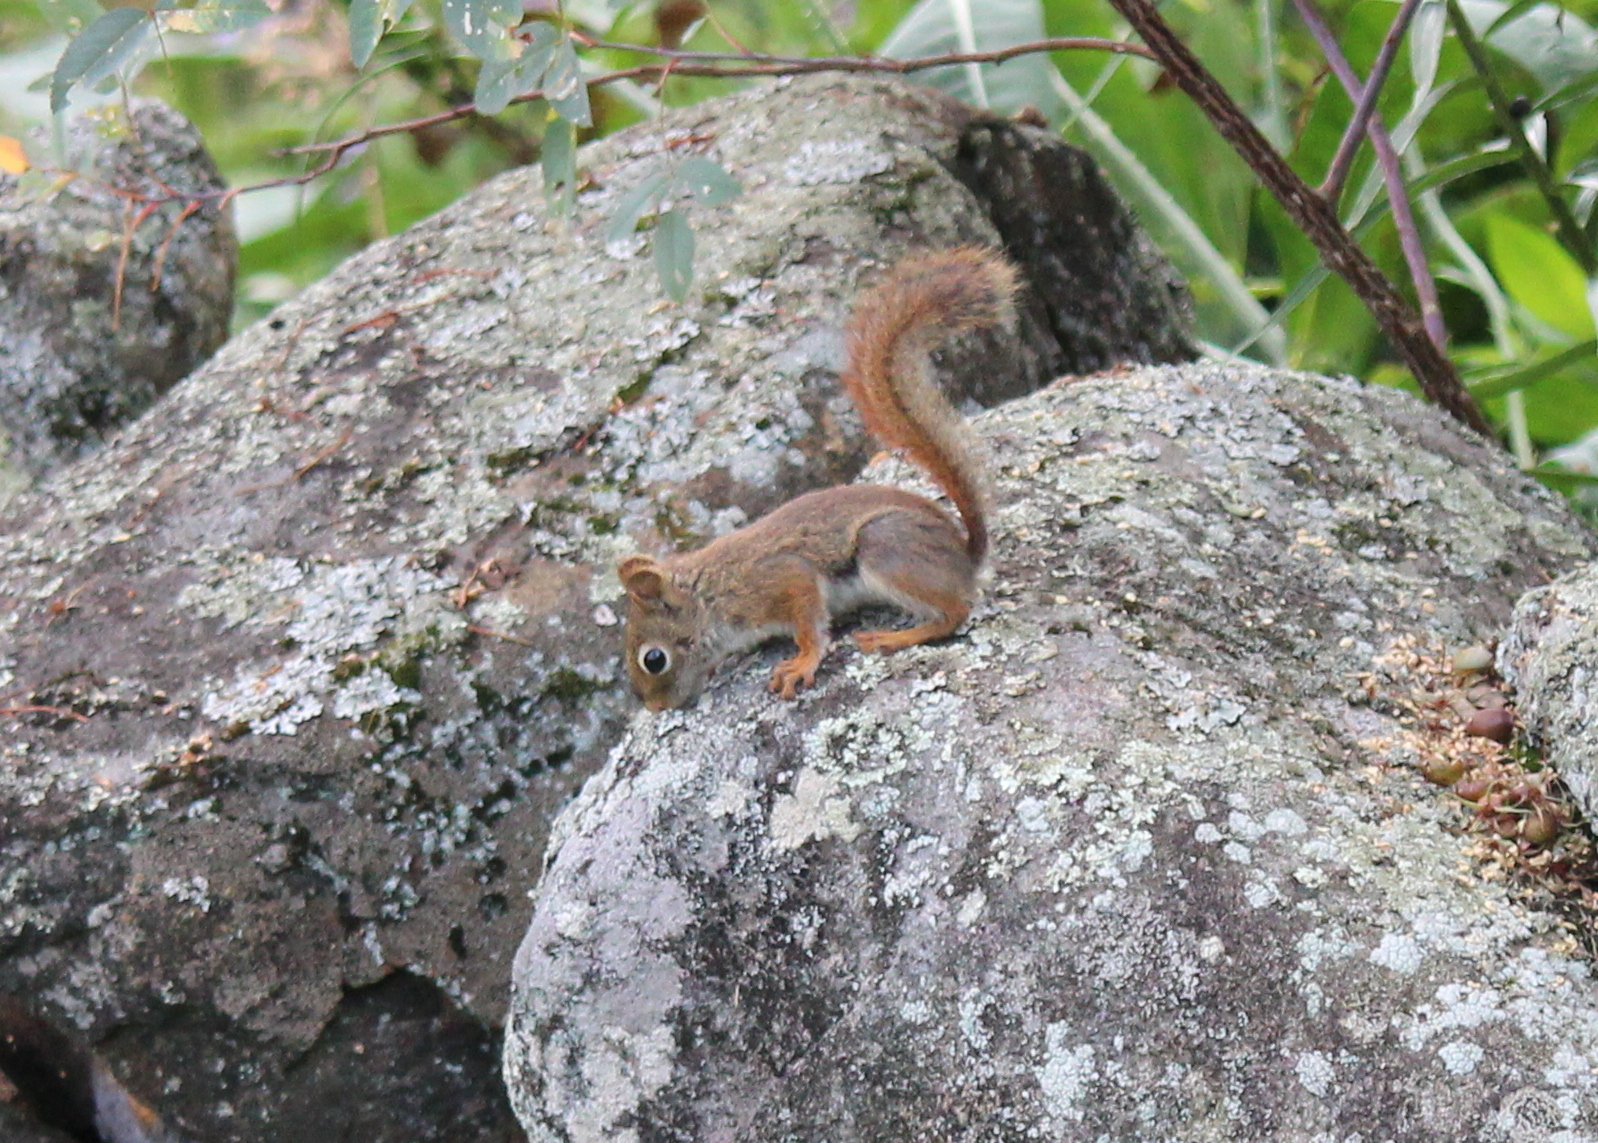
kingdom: Animalia
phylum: Chordata
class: Mammalia
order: Rodentia
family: Sciuridae
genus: Tamiasciurus
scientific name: Tamiasciurus hudsonicus
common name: Red squirrel
